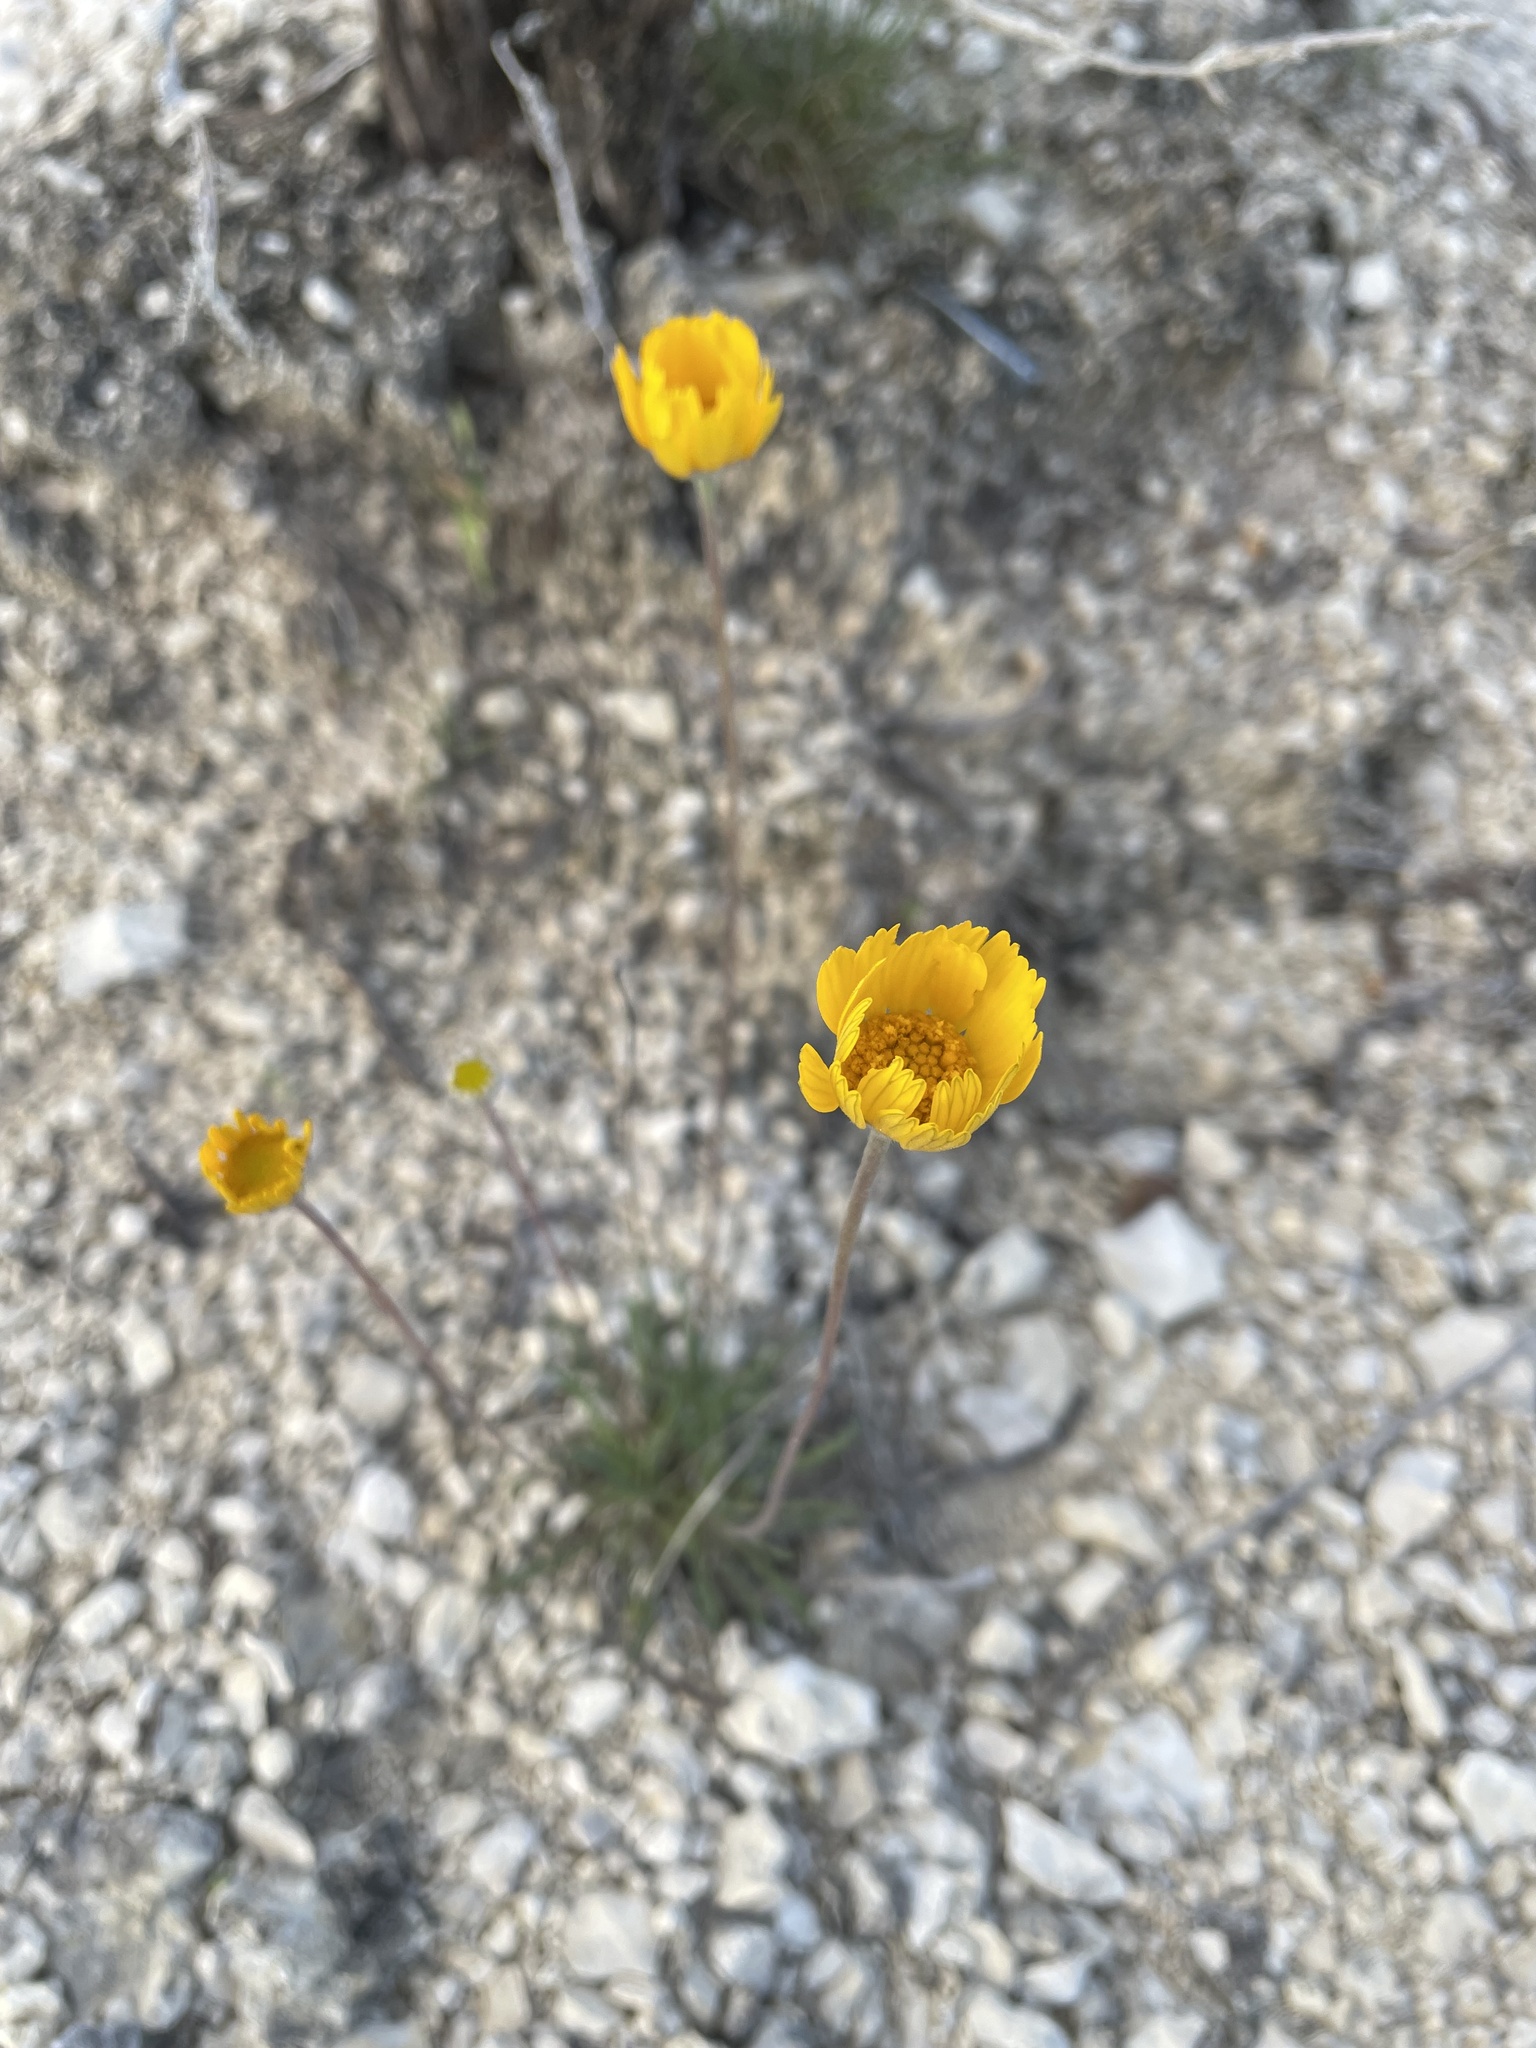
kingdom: Plantae
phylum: Tracheophyta
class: Magnoliopsida
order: Asterales
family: Asteraceae
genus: Tetraneuris
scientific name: Tetraneuris scaposa
